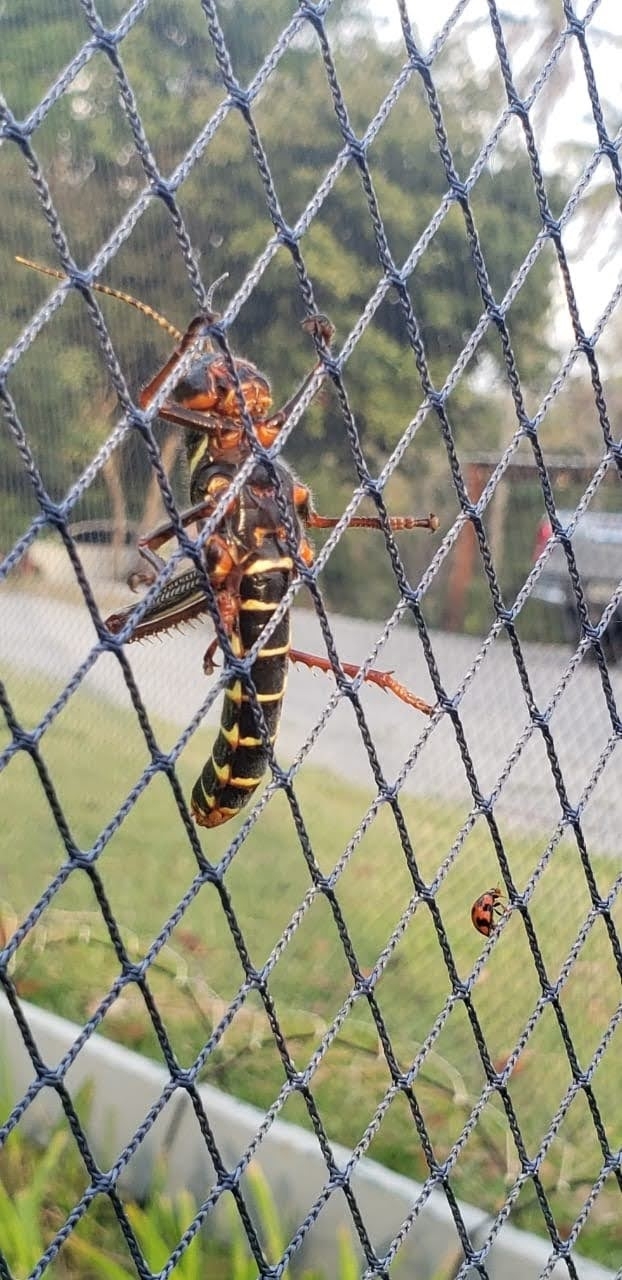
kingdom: Animalia
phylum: Arthropoda
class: Insecta
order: Orthoptera
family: Romaleidae
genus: Tropidacris
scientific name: Tropidacris collaris
